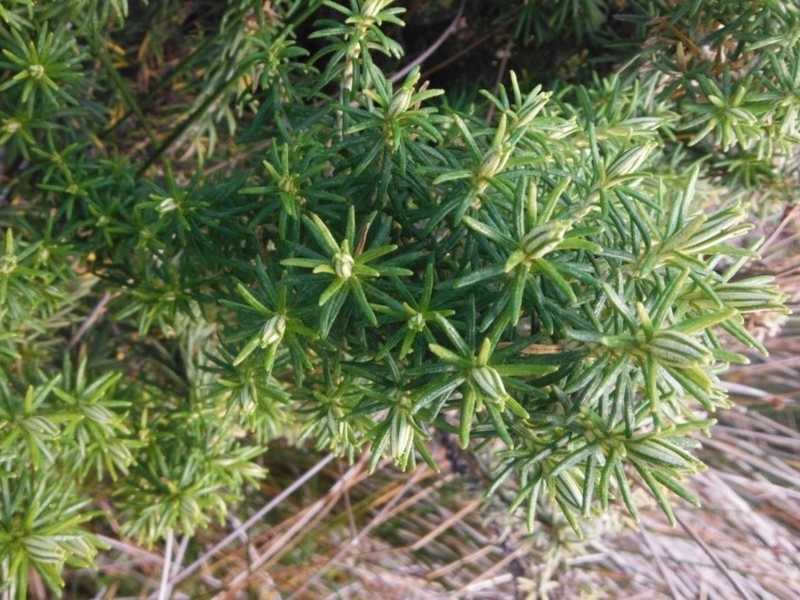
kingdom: Plantae
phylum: Tracheophyta
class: Magnoliopsida
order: Asterales
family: Asteraceae
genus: Ozothamnus
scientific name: Ozothamnus cinereus
